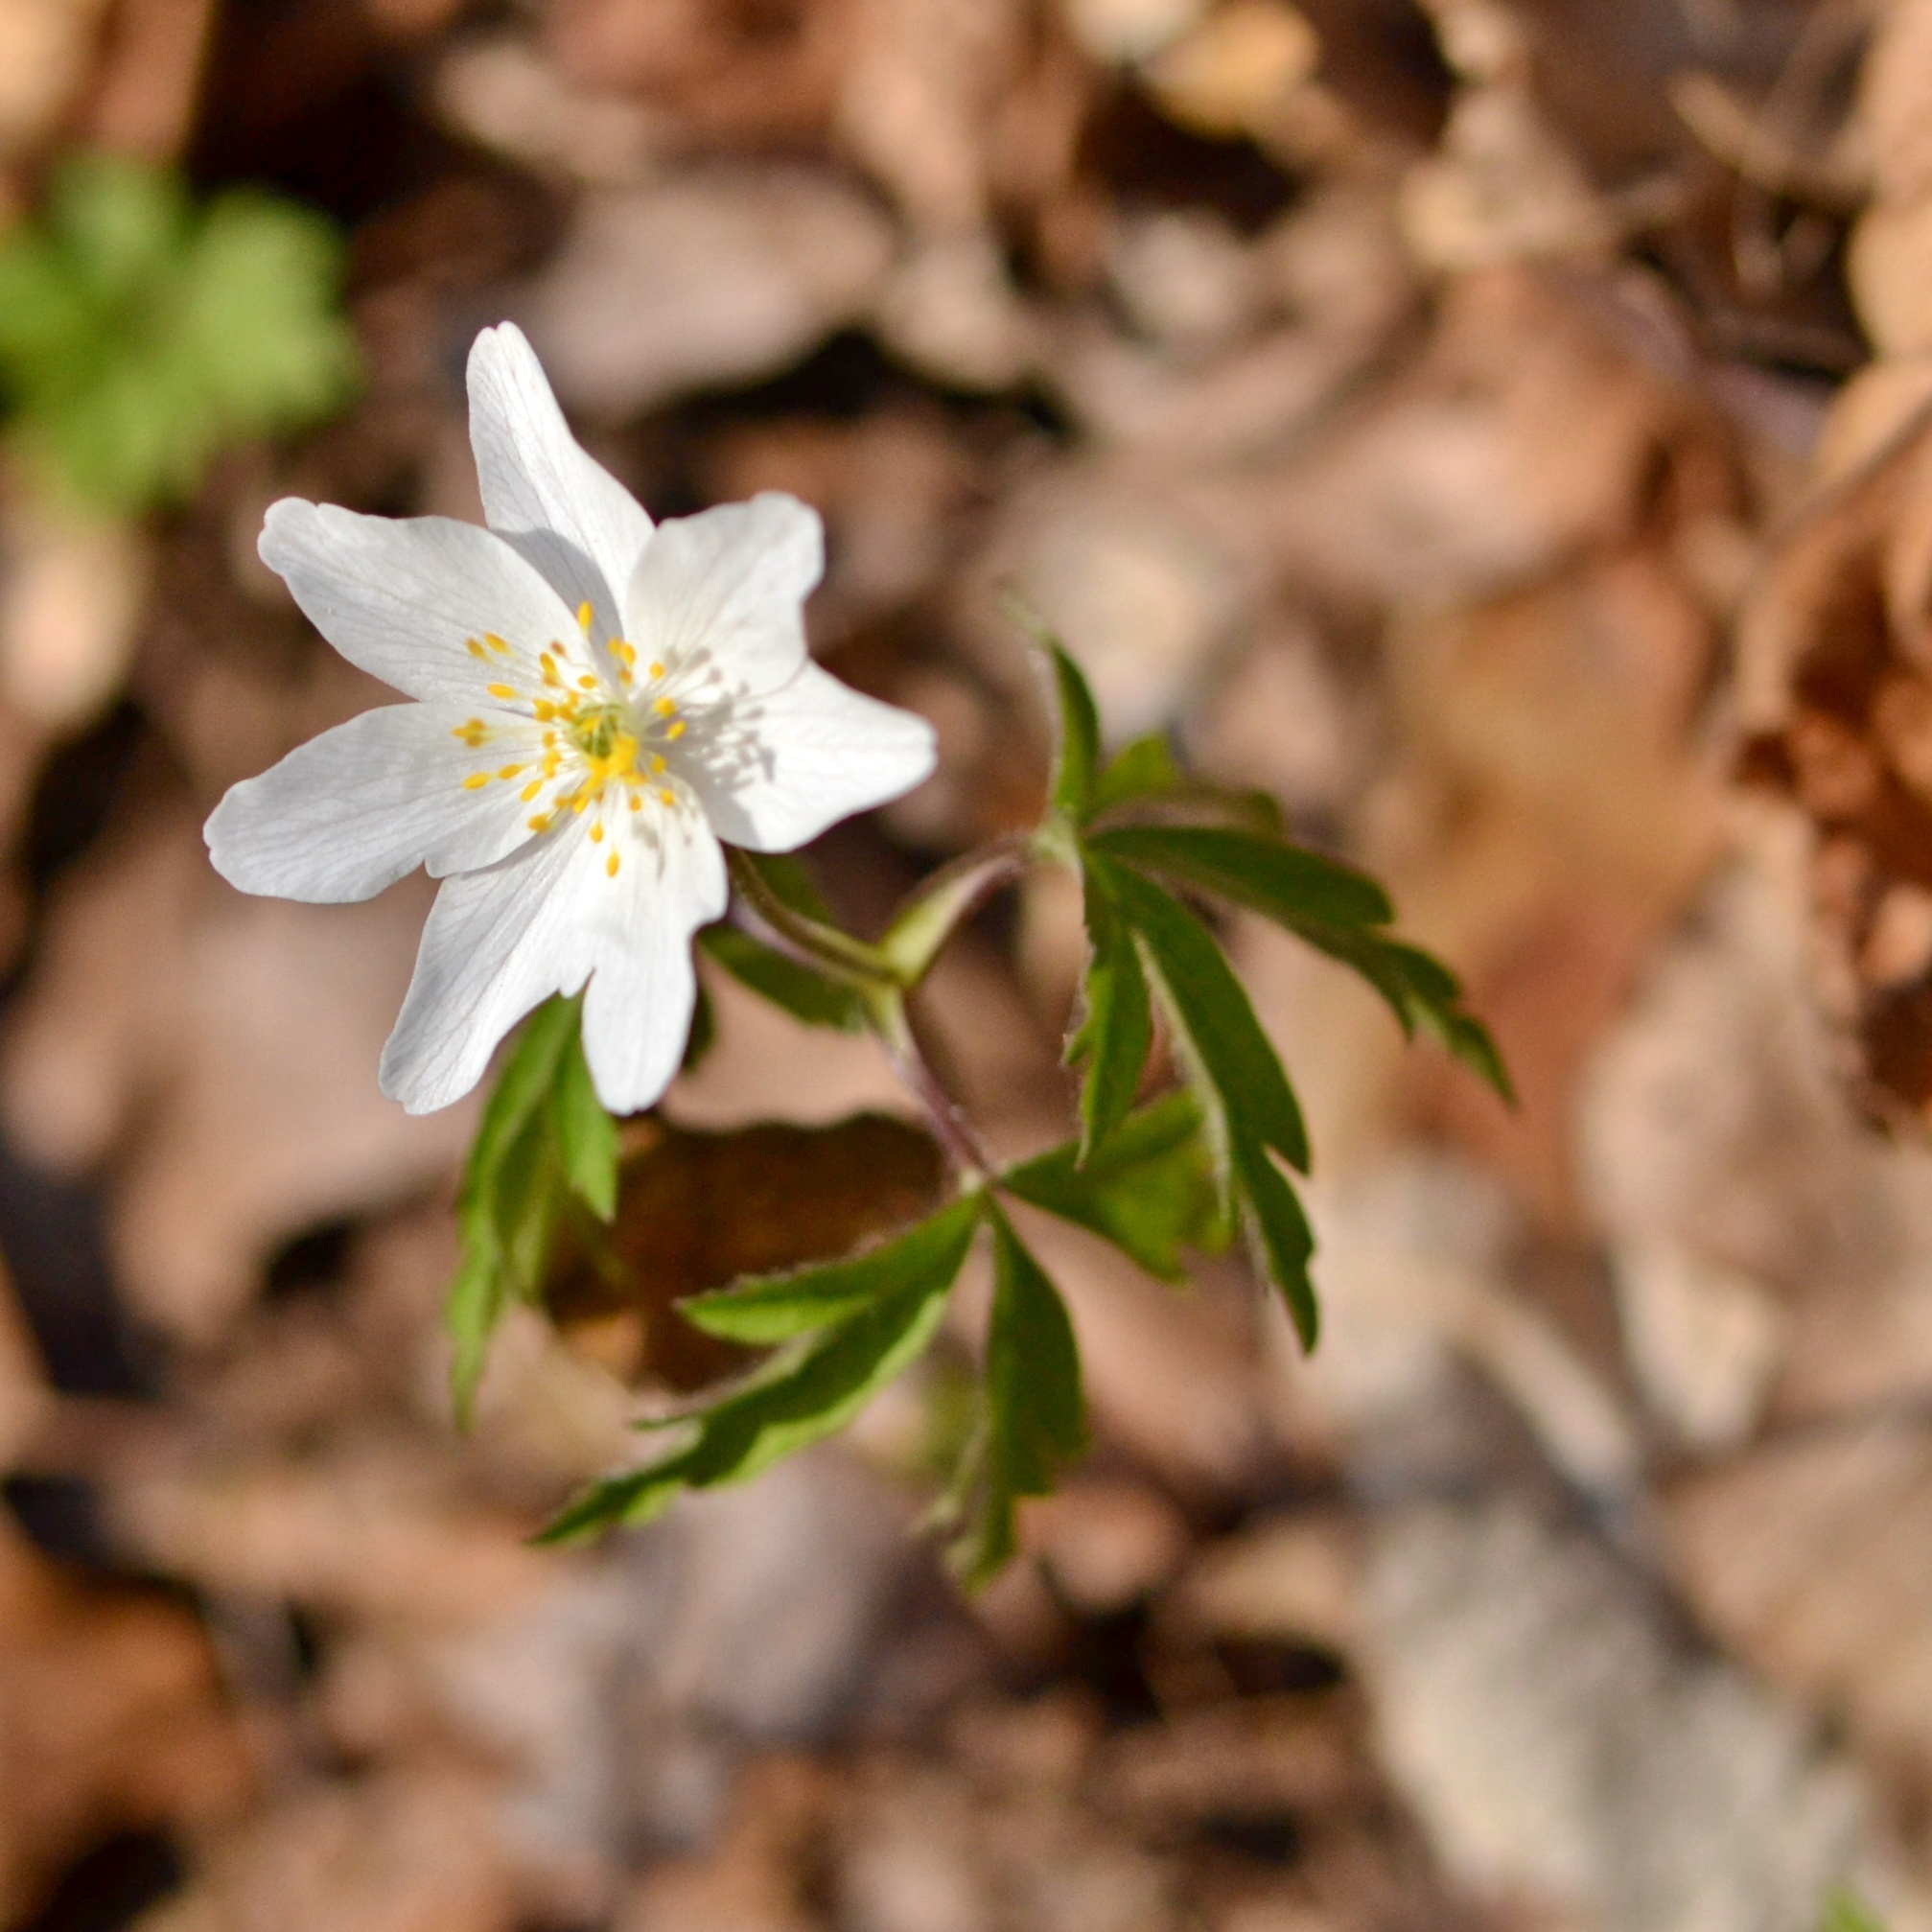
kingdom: Plantae
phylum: Tracheophyta
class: Magnoliopsida
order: Ranunculales
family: Ranunculaceae
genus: Anemone
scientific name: Anemone nemorosa
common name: Wood anemone
